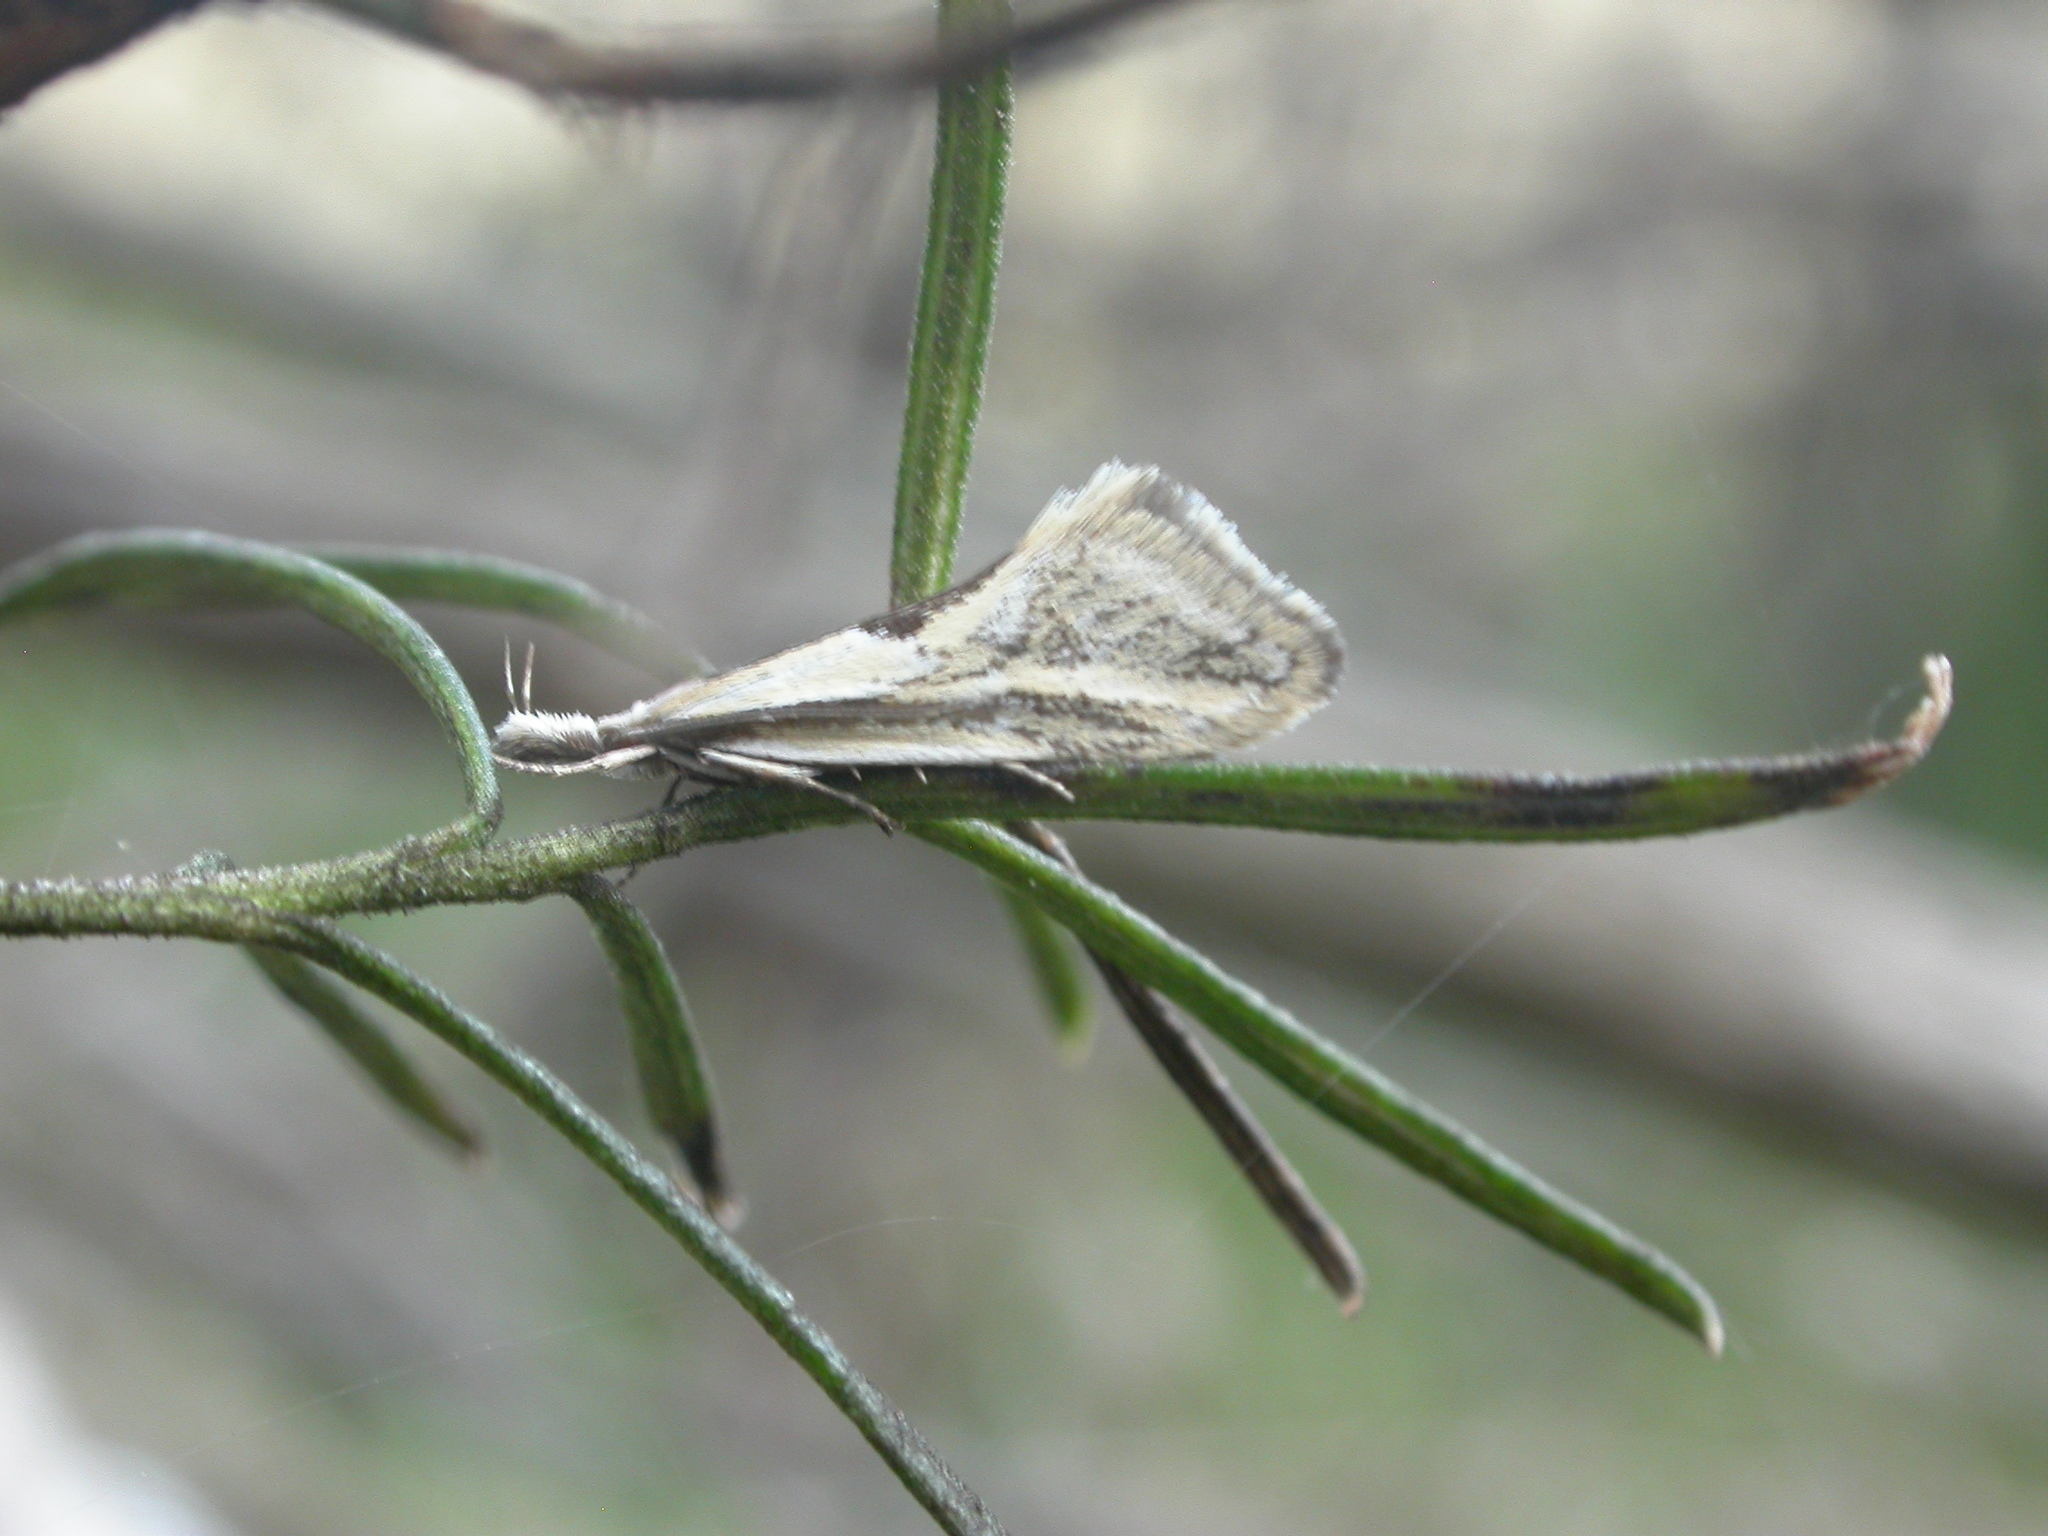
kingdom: Animalia
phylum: Arthropoda
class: Insecta
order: Lepidoptera
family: Oecophoridae
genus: Thema
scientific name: Thema macroscia
